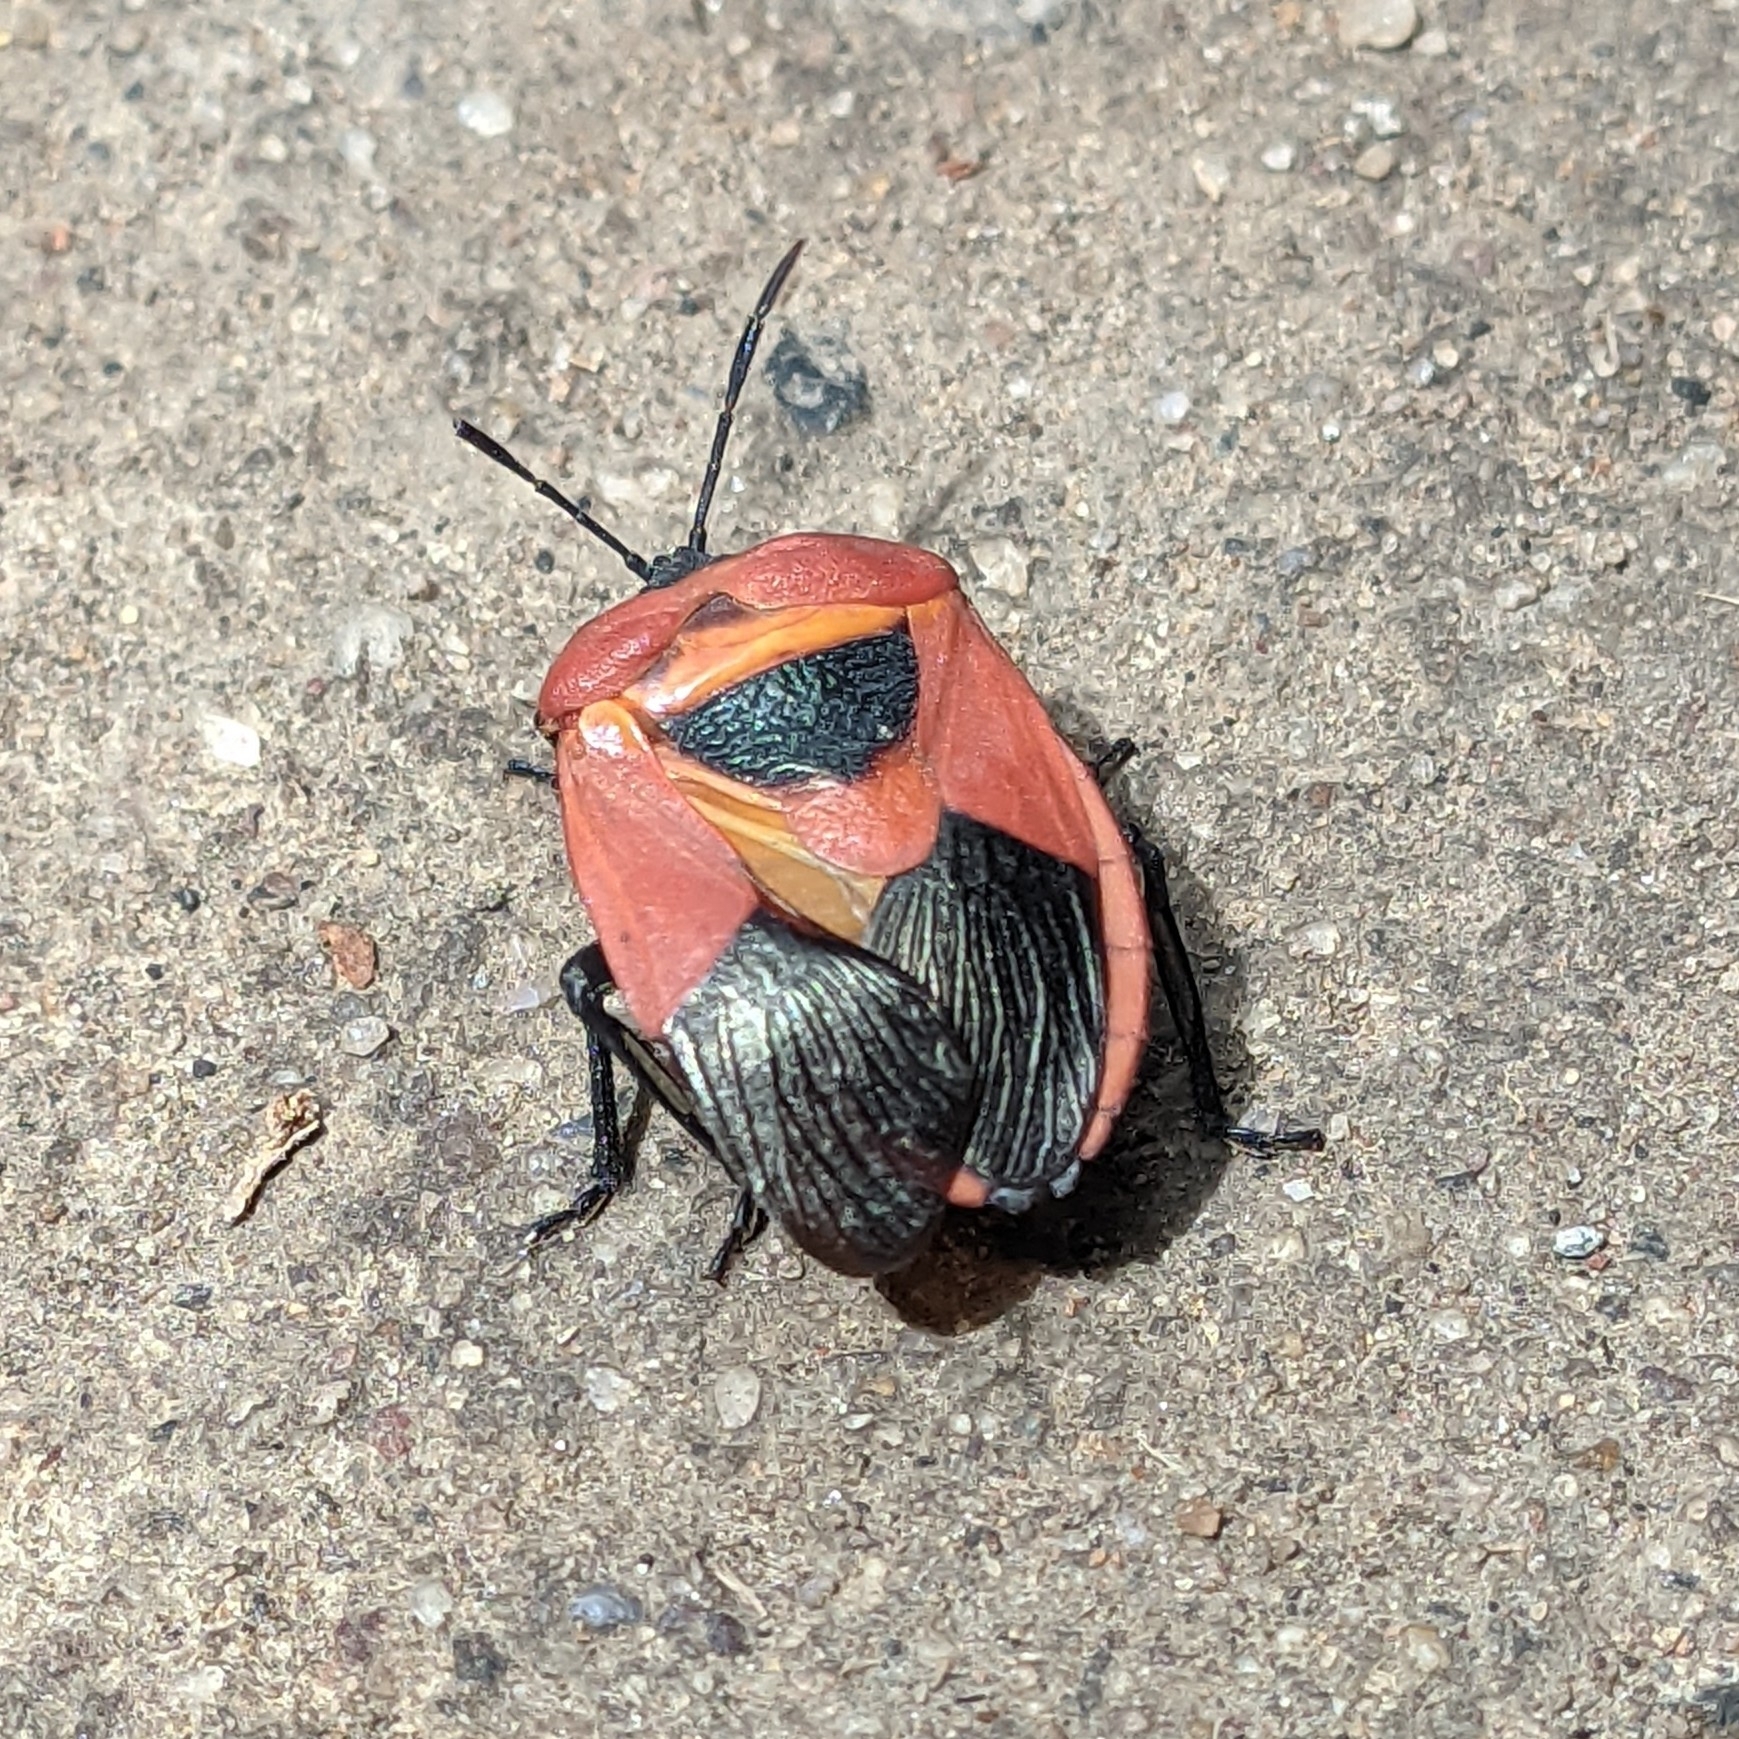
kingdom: Animalia
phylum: Arthropoda
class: Insecta
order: Hemiptera
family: Dinidoridae
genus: Coridius
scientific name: Coridius ianus
